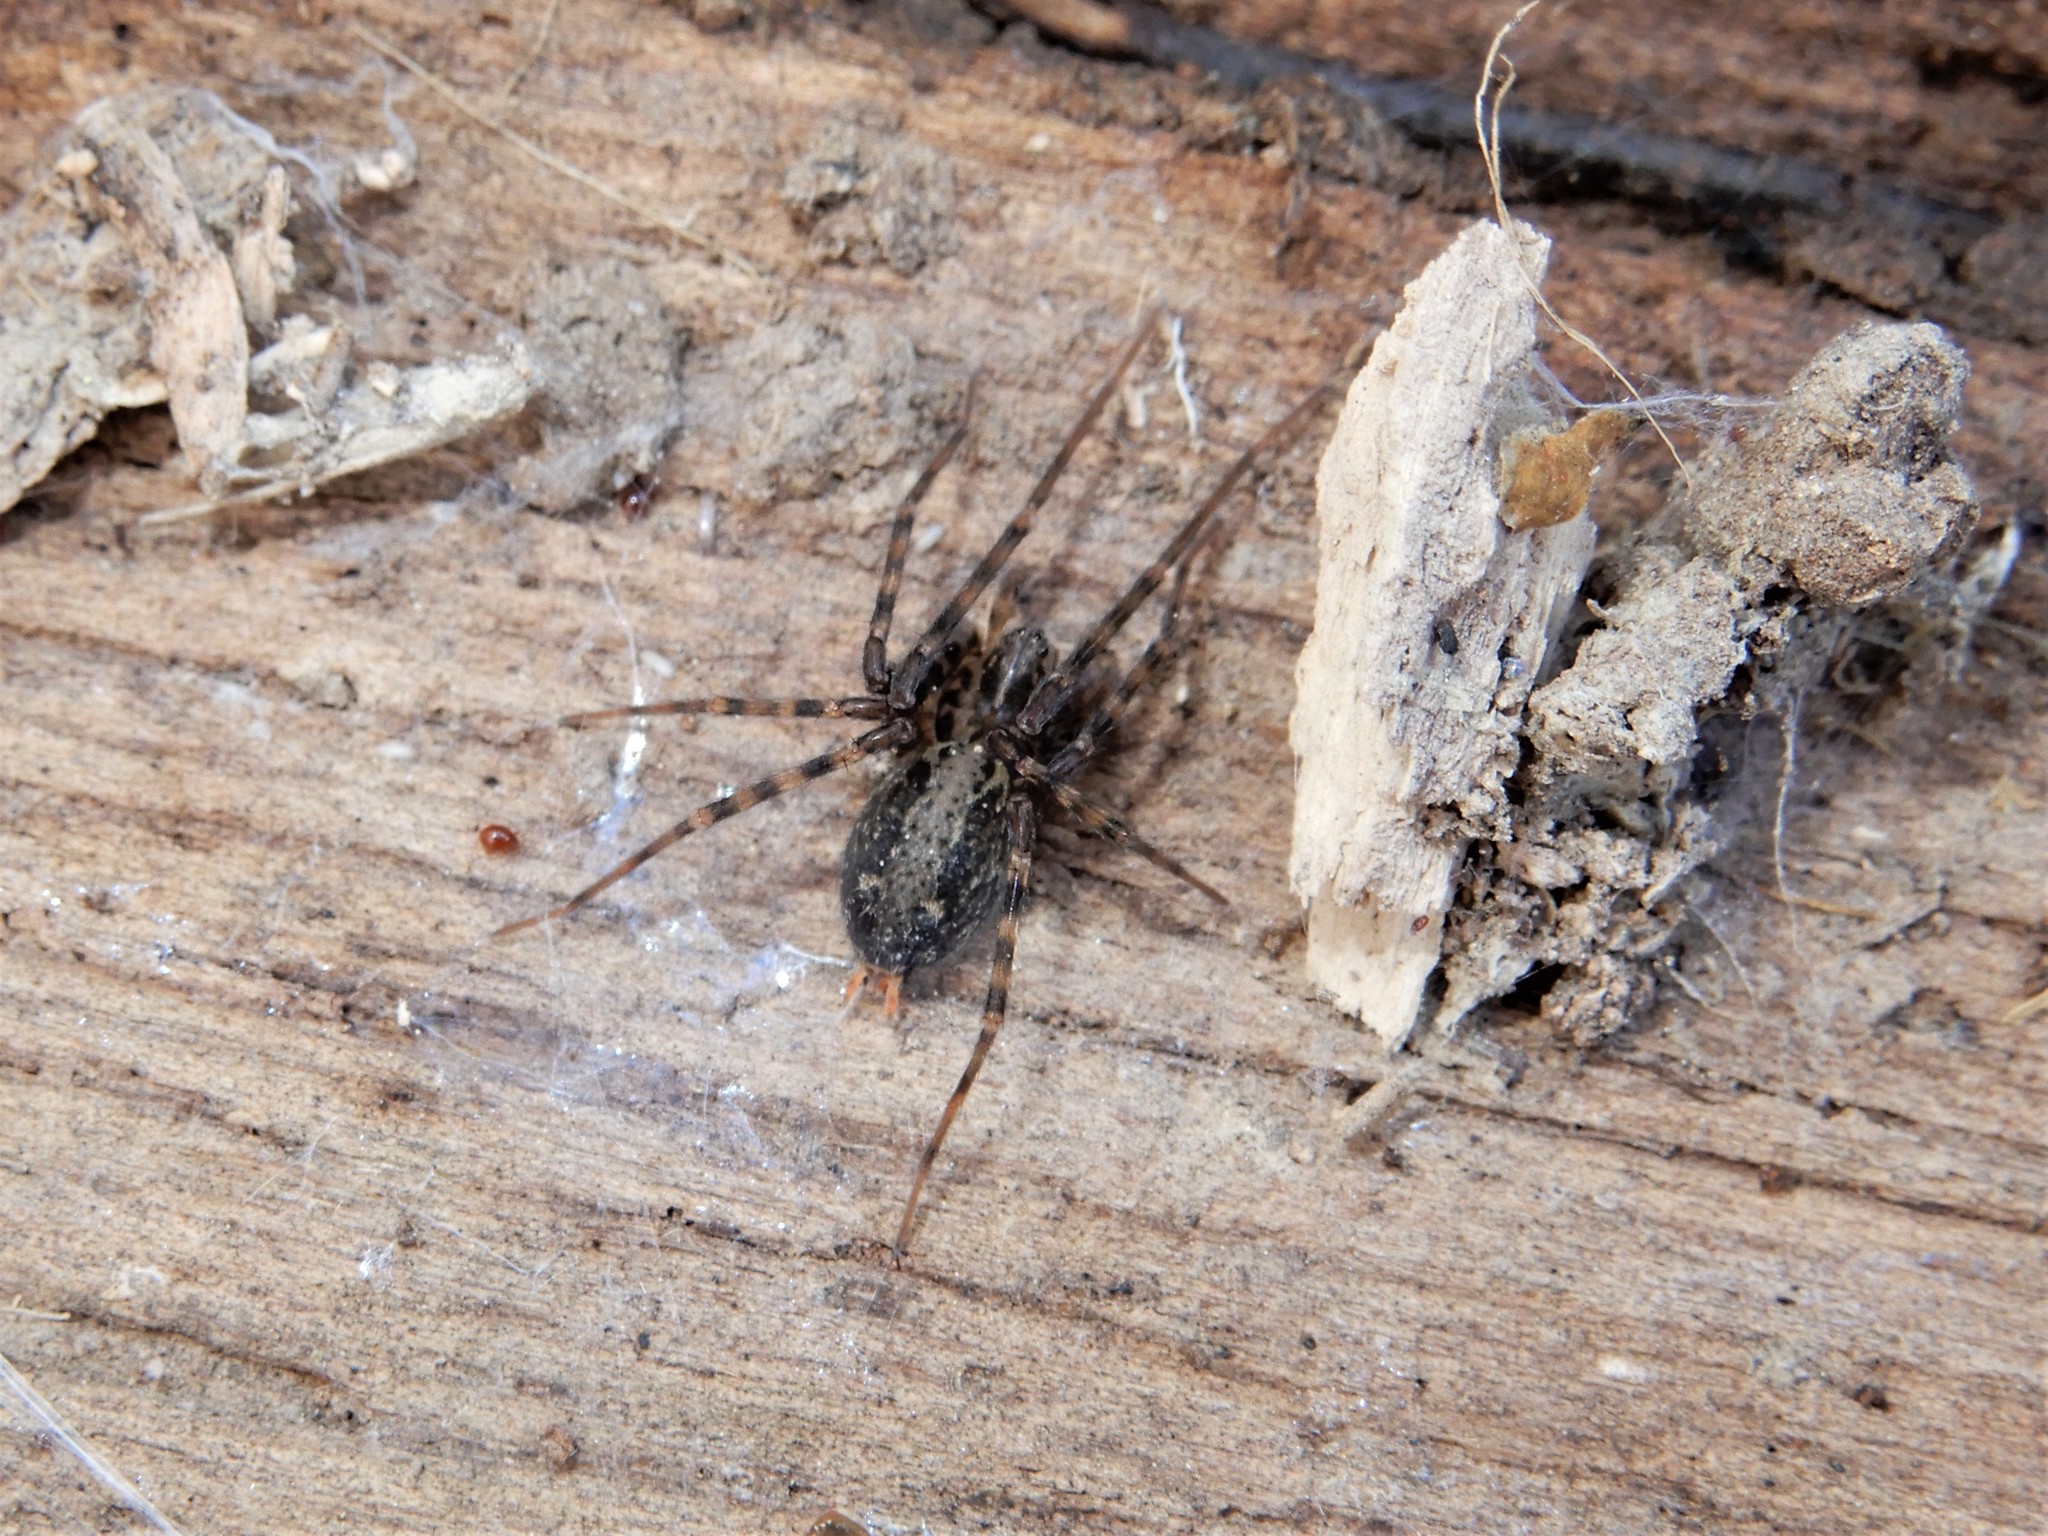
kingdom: Animalia
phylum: Arthropoda
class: Arachnida
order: Araneae
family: Stiphidiidae
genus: Stiphidion
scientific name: Stiphidion facetum
